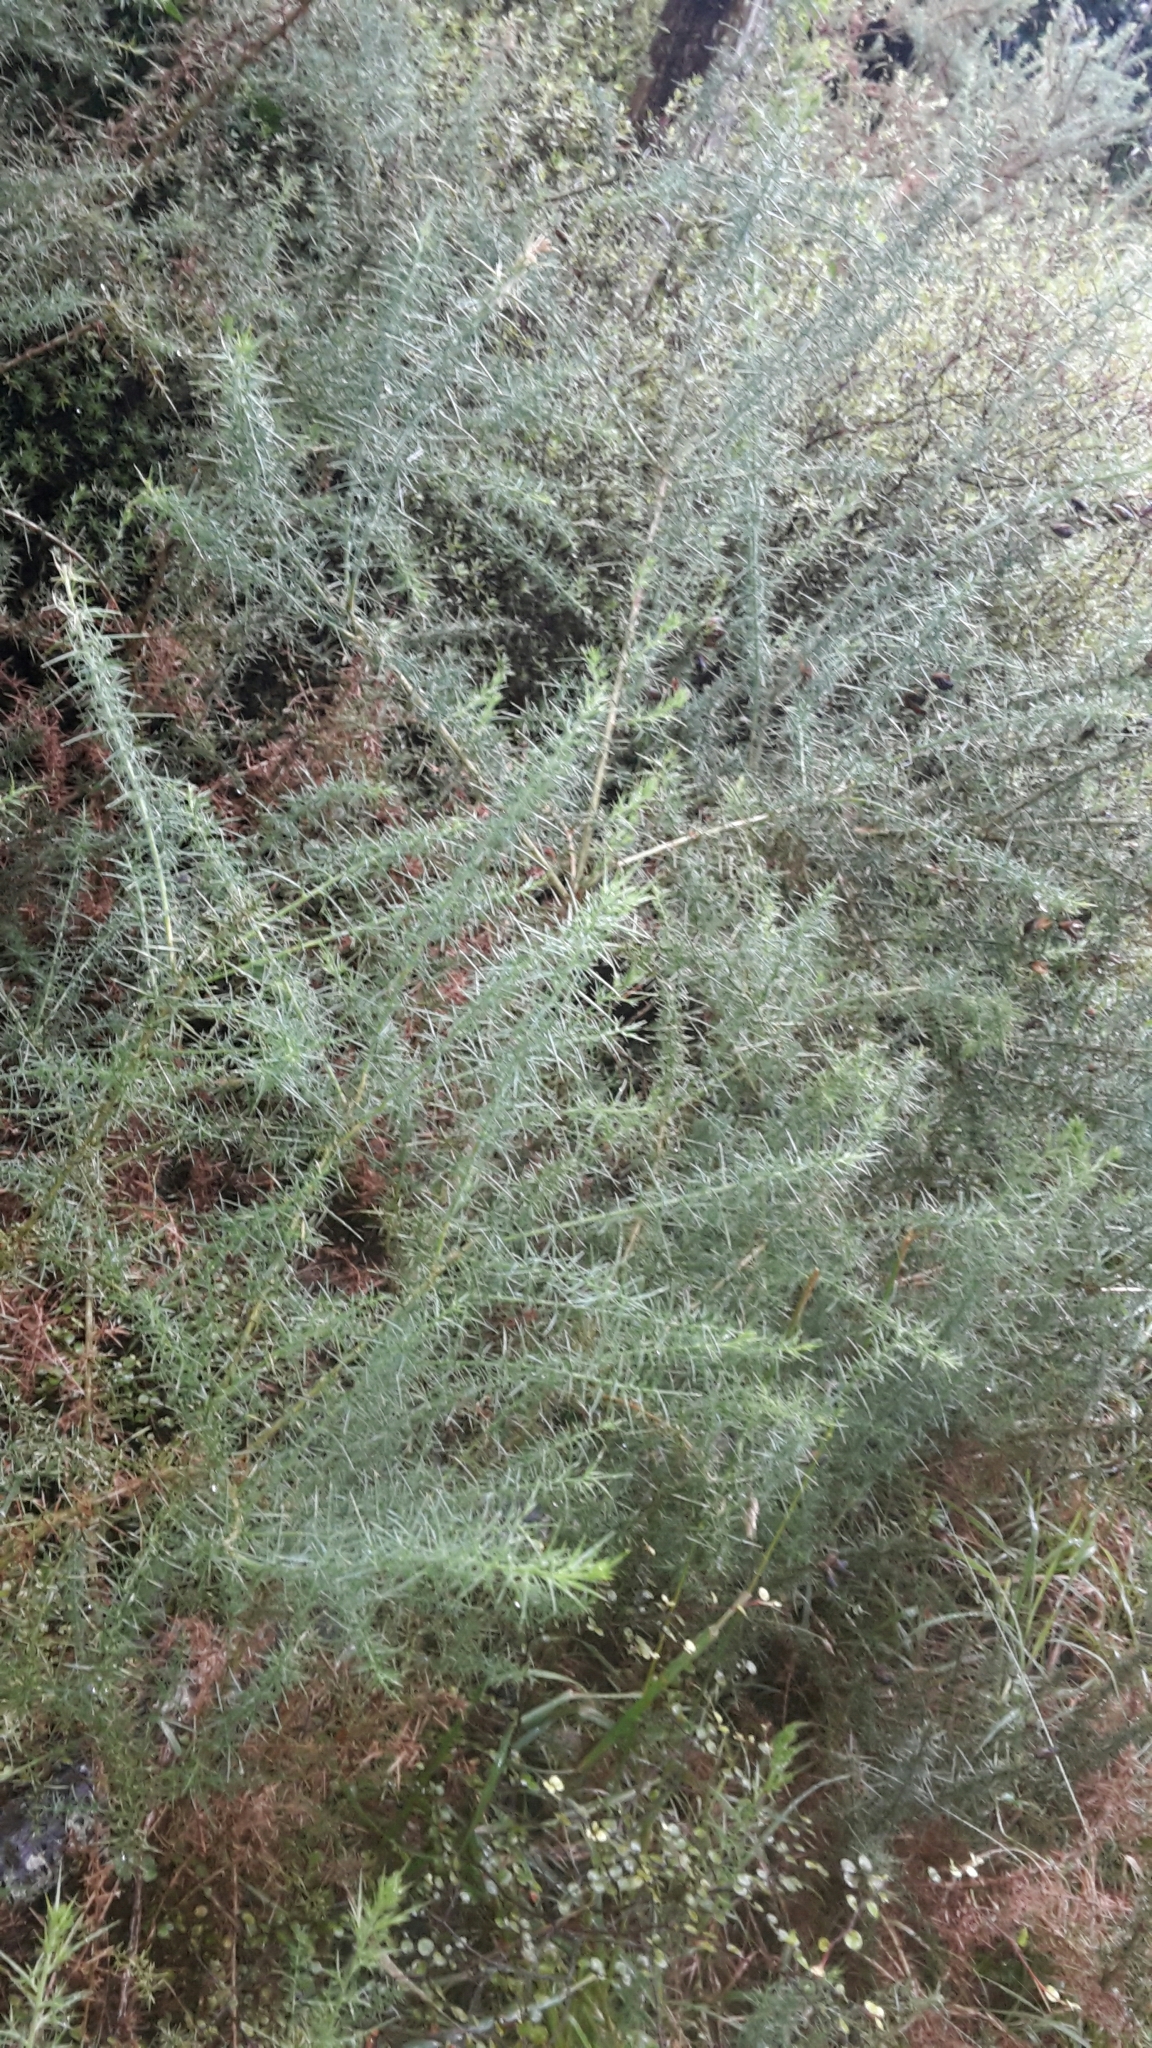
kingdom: Plantae
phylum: Tracheophyta
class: Magnoliopsida
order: Fabales
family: Fabaceae
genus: Ulex
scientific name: Ulex europaeus
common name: Common gorse
